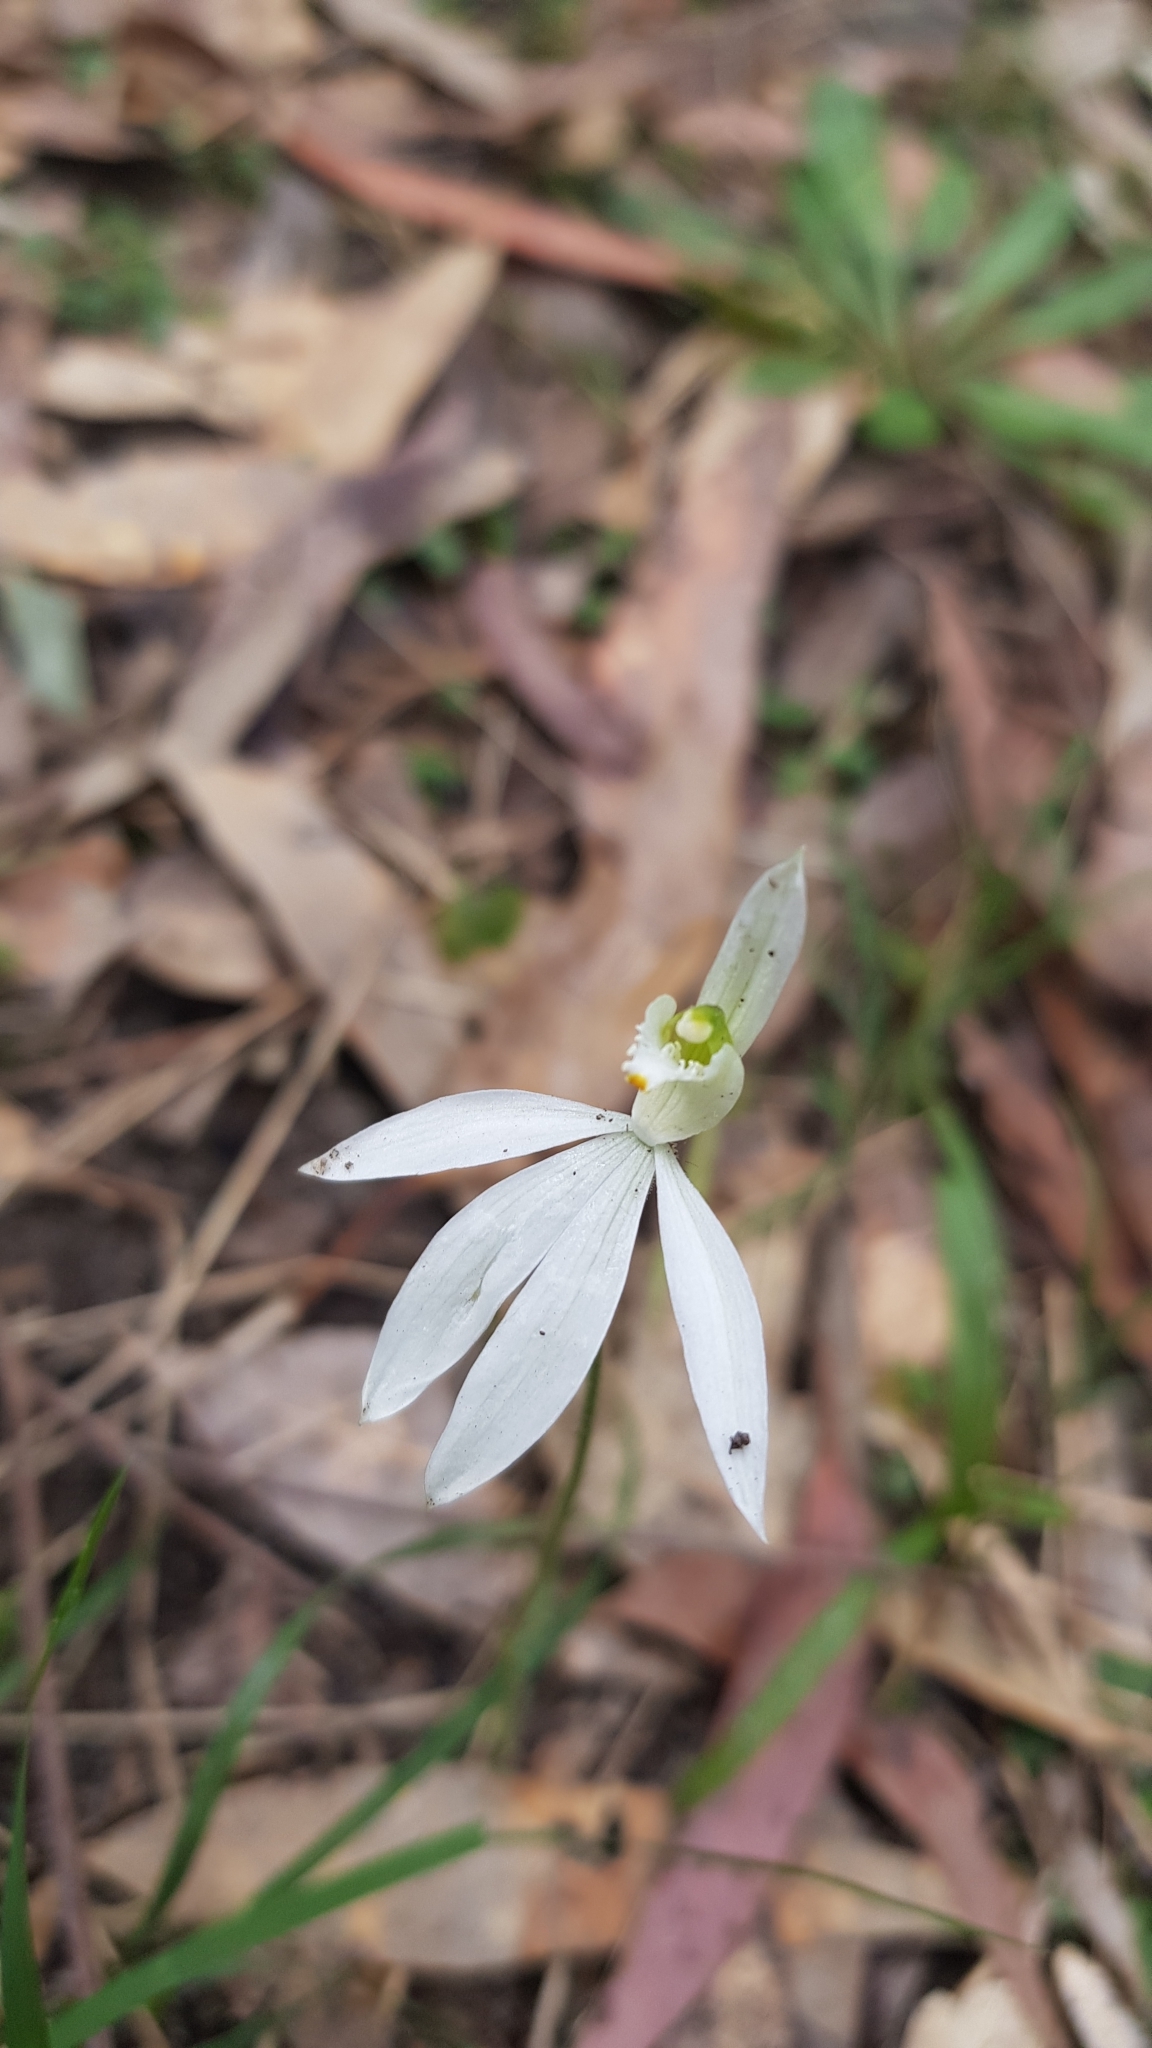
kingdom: Plantae
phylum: Tracheophyta
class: Liliopsida
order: Asparagales
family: Orchidaceae
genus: Caladenia
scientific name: Caladenia catenata
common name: White caladenia
